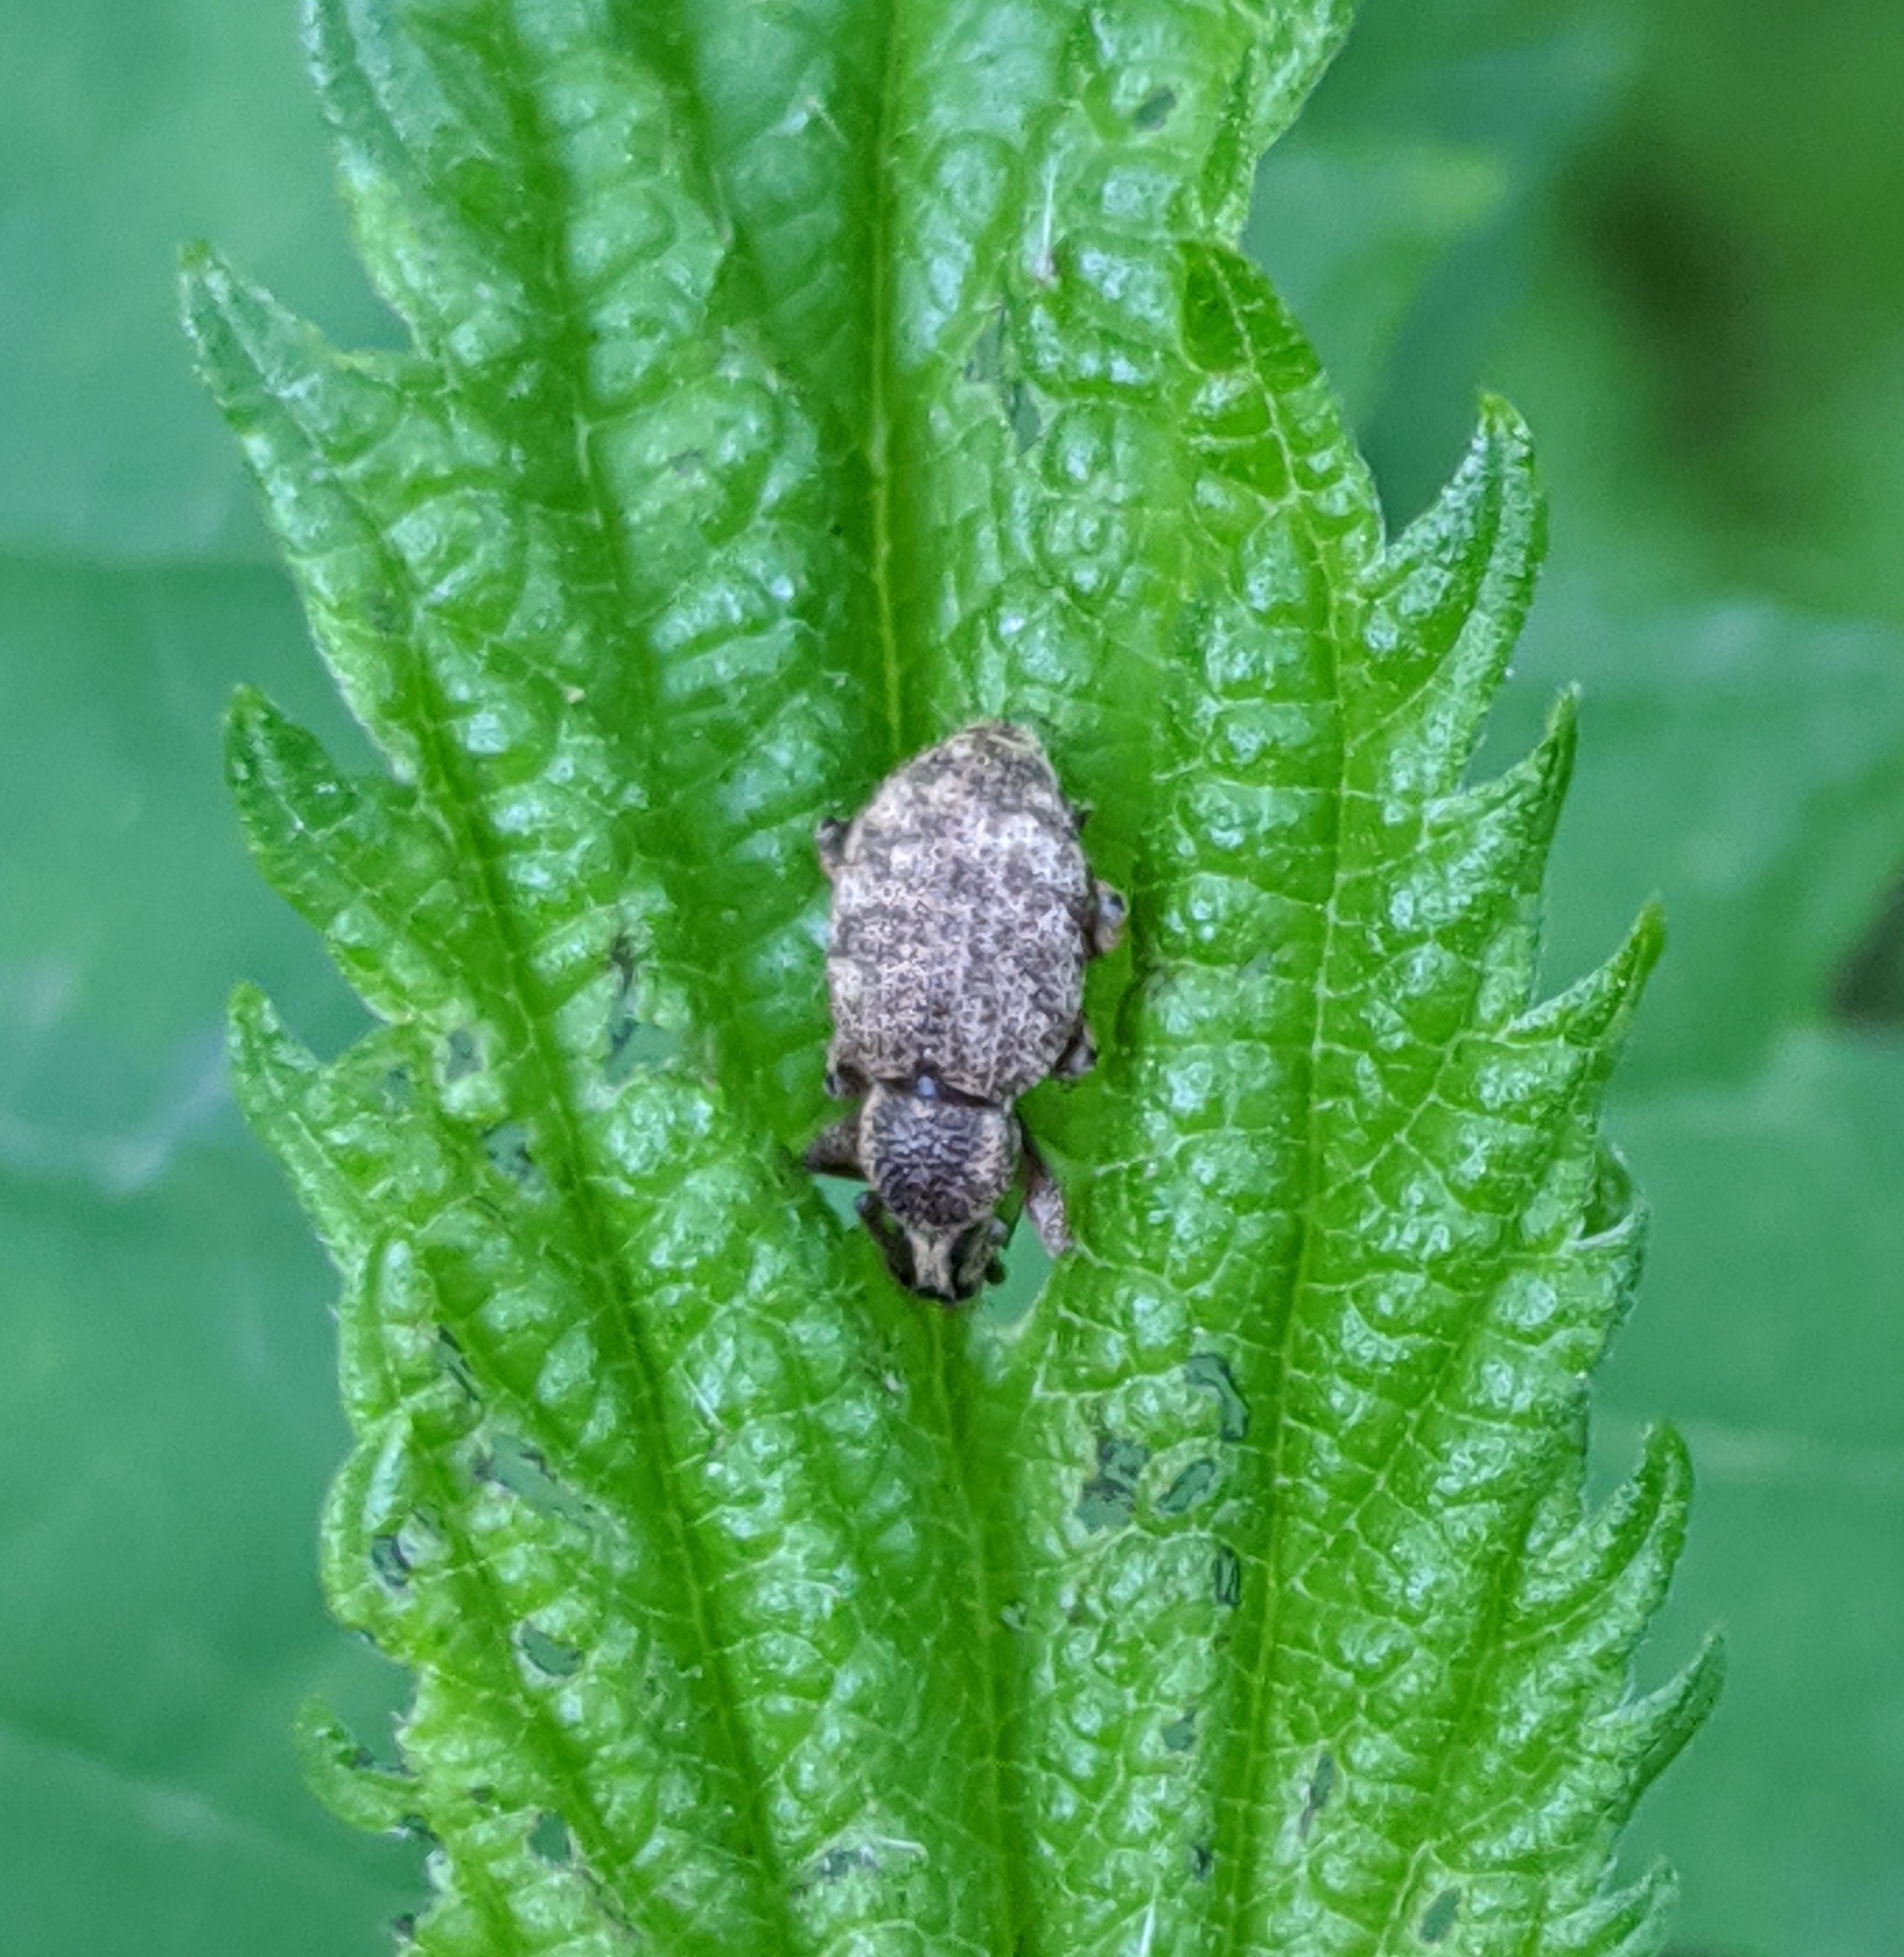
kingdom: Animalia
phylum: Arthropoda
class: Insecta
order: Coleoptera
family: Curculionidae
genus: Otiorhynchus
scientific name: Otiorhynchus singularis
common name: Clay-coloured weevil
